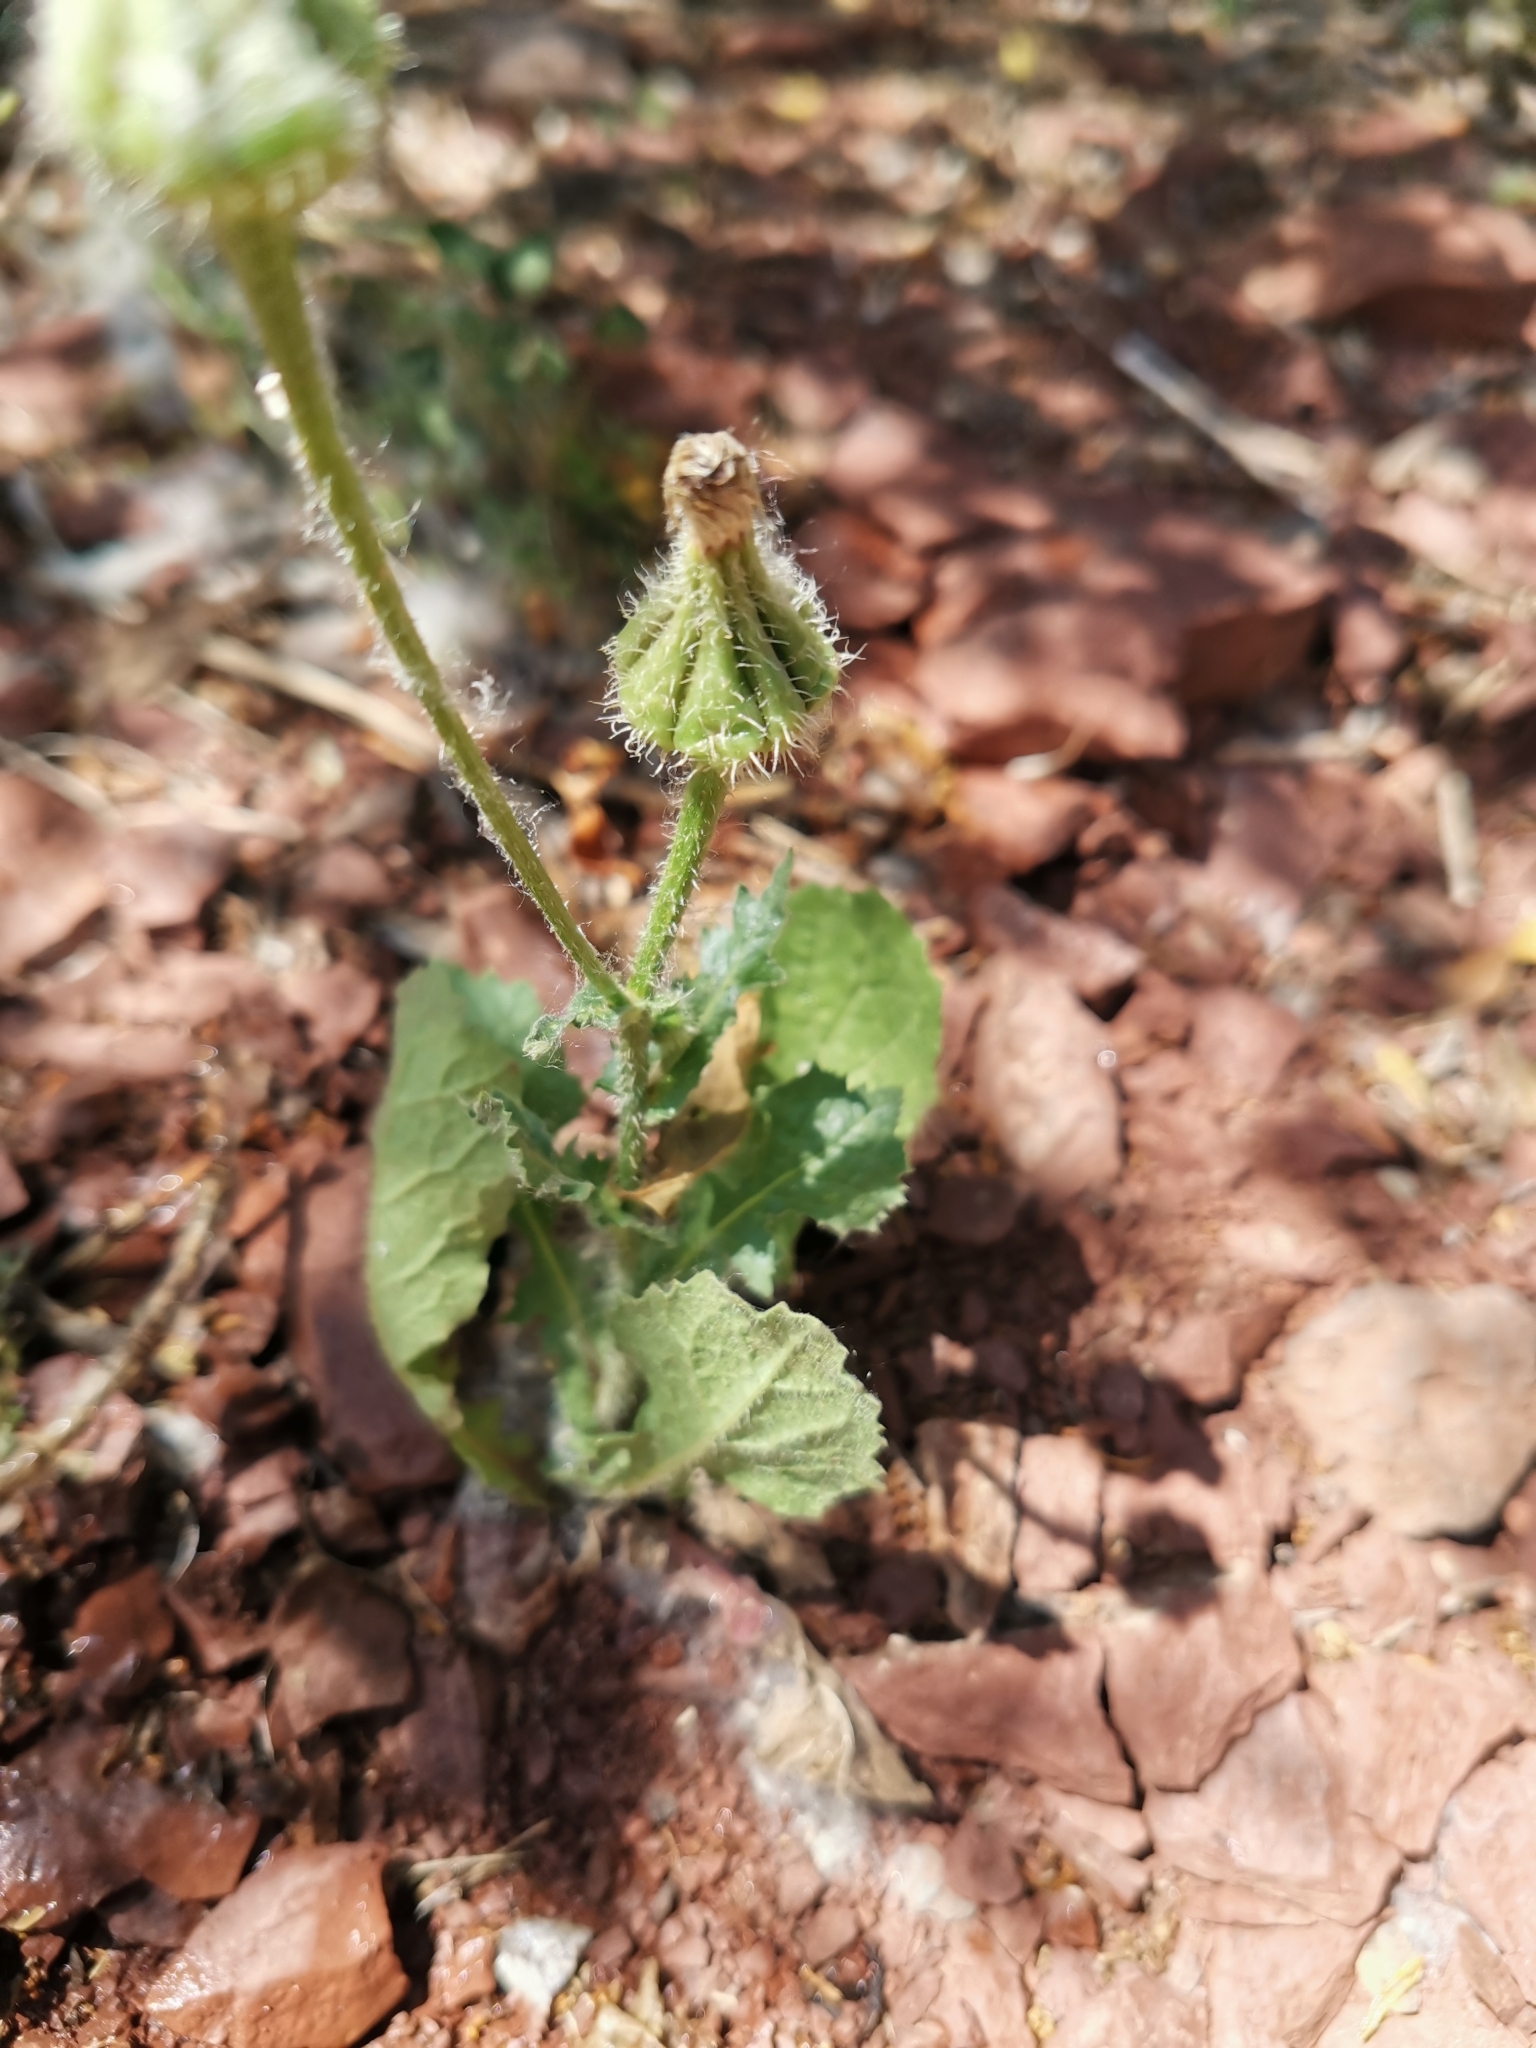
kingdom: Plantae
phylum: Tracheophyta
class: Magnoliopsida
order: Asterales
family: Asteraceae
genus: Urospermum
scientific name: Urospermum picroides
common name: False hawkbit
